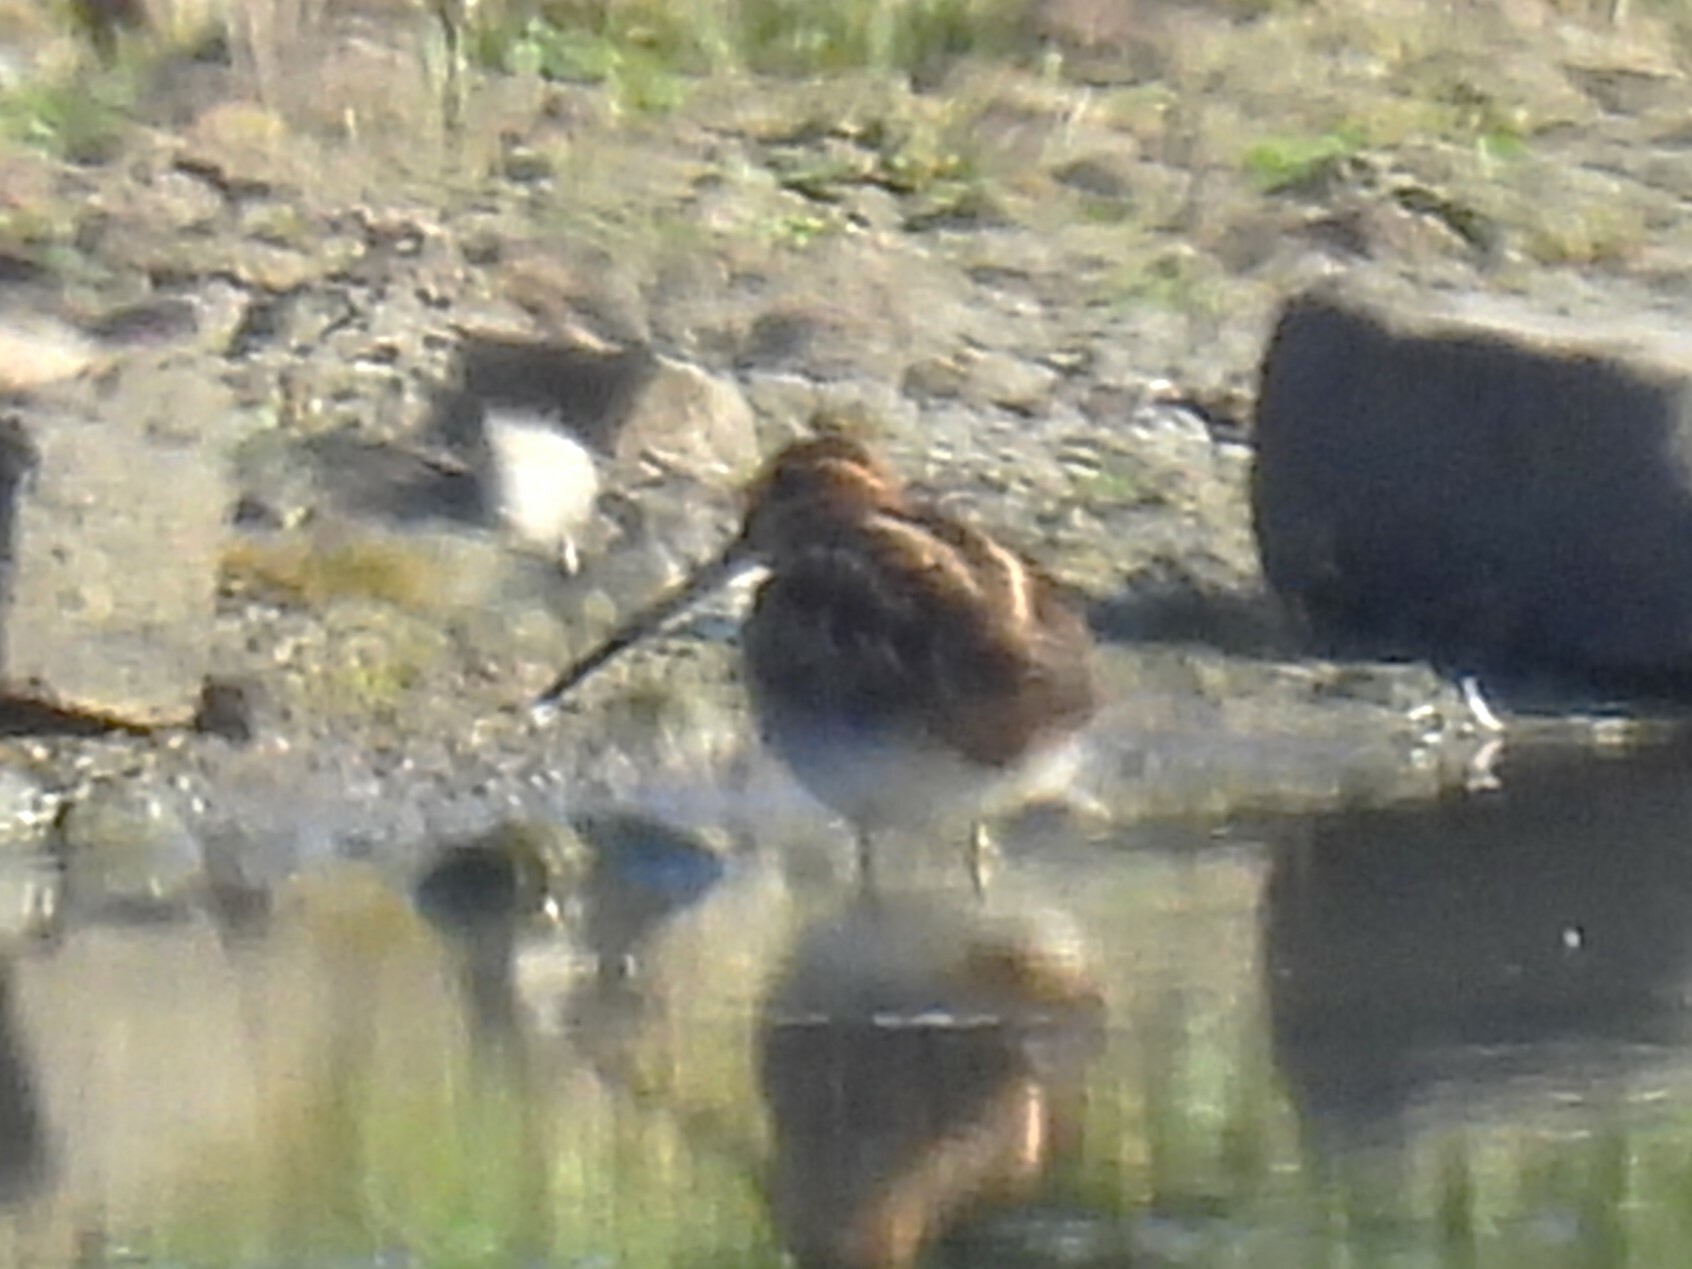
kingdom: Animalia
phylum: Chordata
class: Aves
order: Charadriiformes
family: Scolopacidae
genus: Gallinago
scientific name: Gallinago gallinago
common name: Common snipe
